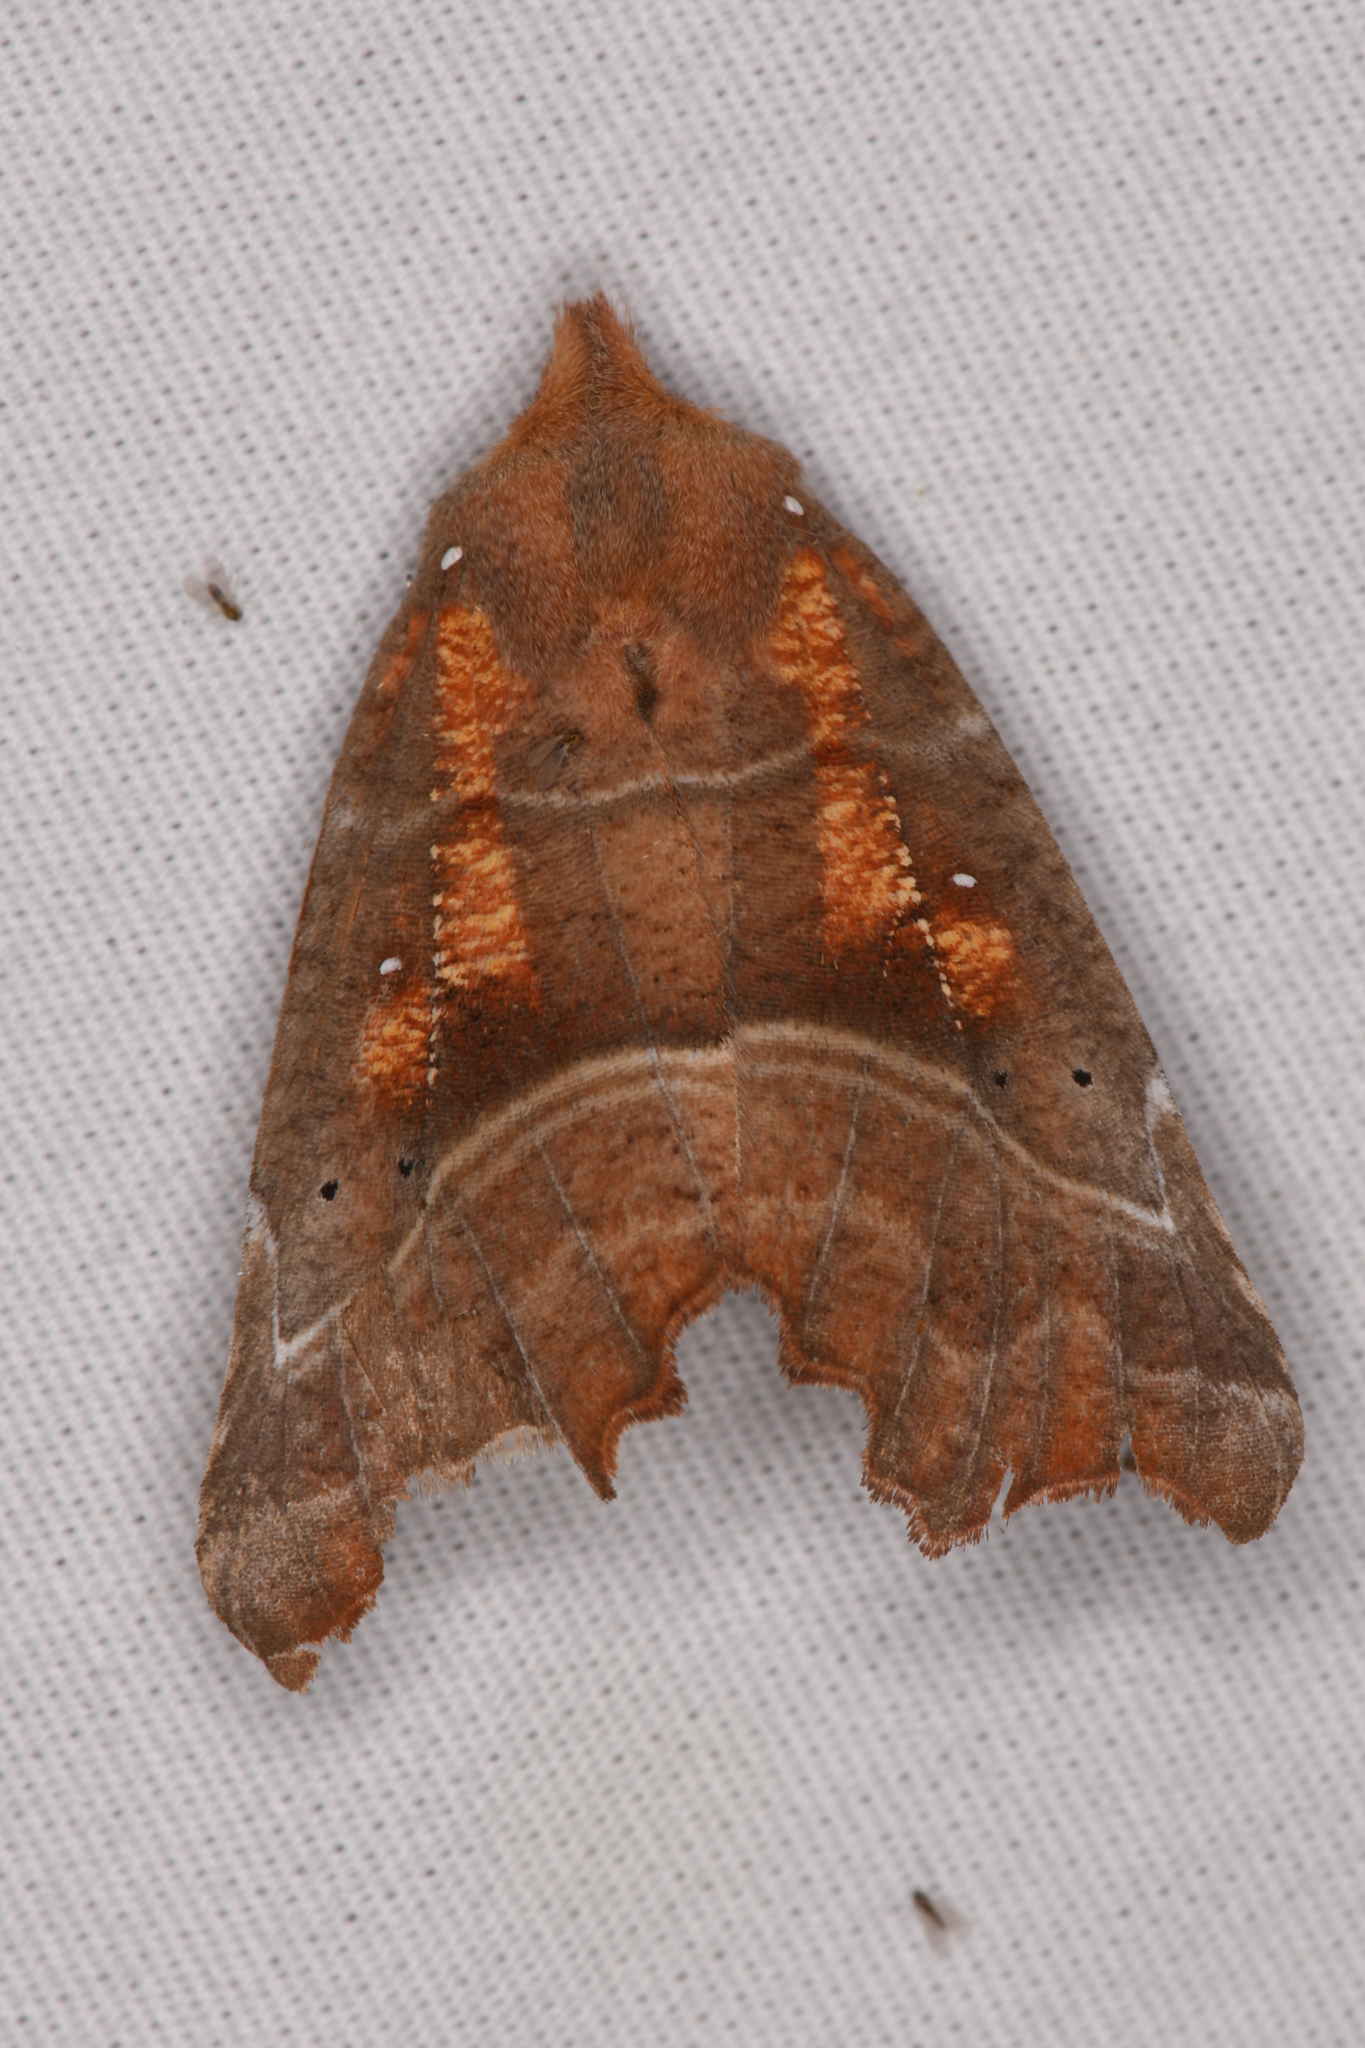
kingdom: Animalia
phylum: Arthropoda
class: Insecta
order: Lepidoptera
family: Erebidae
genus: Scoliopteryx
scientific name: Scoliopteryx libatrix
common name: Herald
